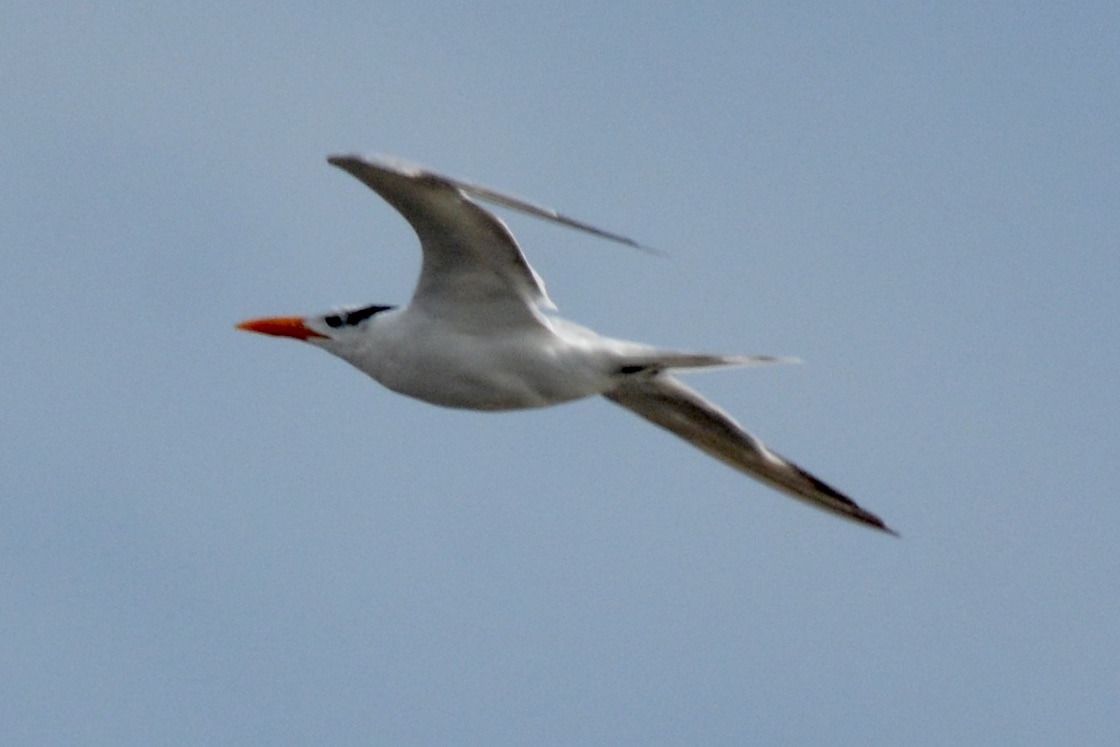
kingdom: Animalia
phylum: Chordata
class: Aves
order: Charadriiformes
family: Laridae
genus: Thalasseus
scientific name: Thalasseus maximus
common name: Royal tern
